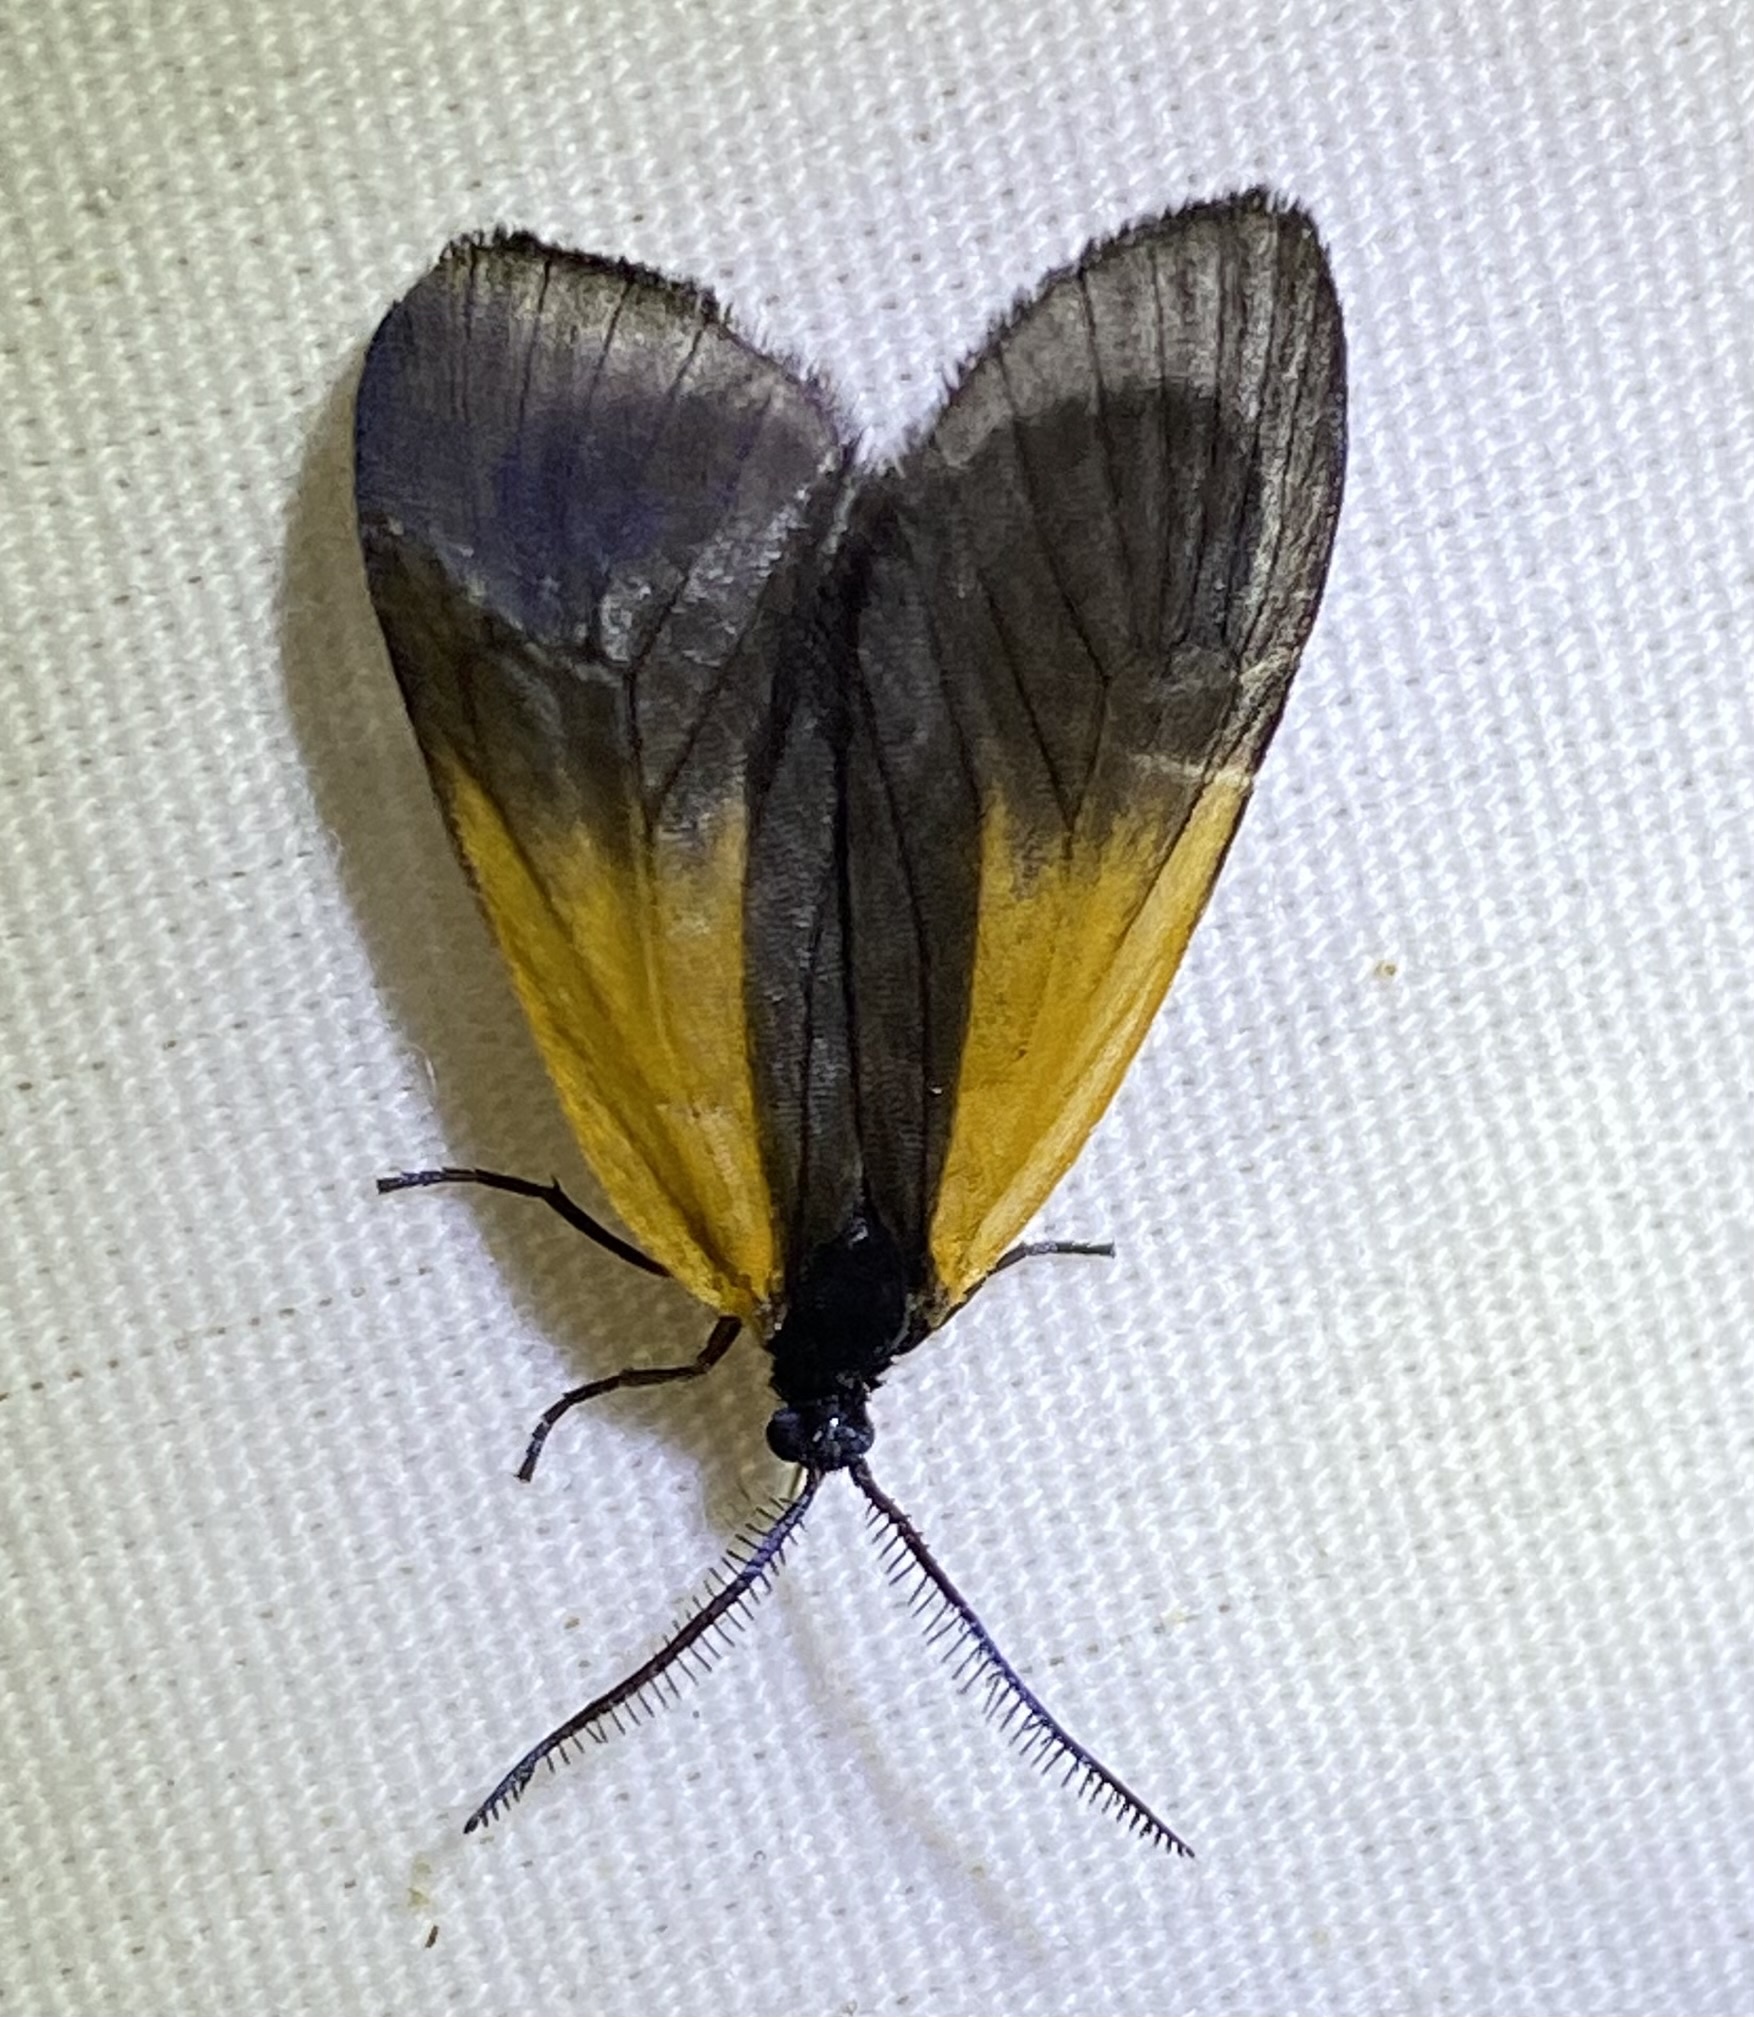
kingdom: Animalia
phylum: Arthropoda
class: Insecta
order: Lepidoptera
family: Zygaenidae
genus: Malthaca
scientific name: Malthaca dimidiata
